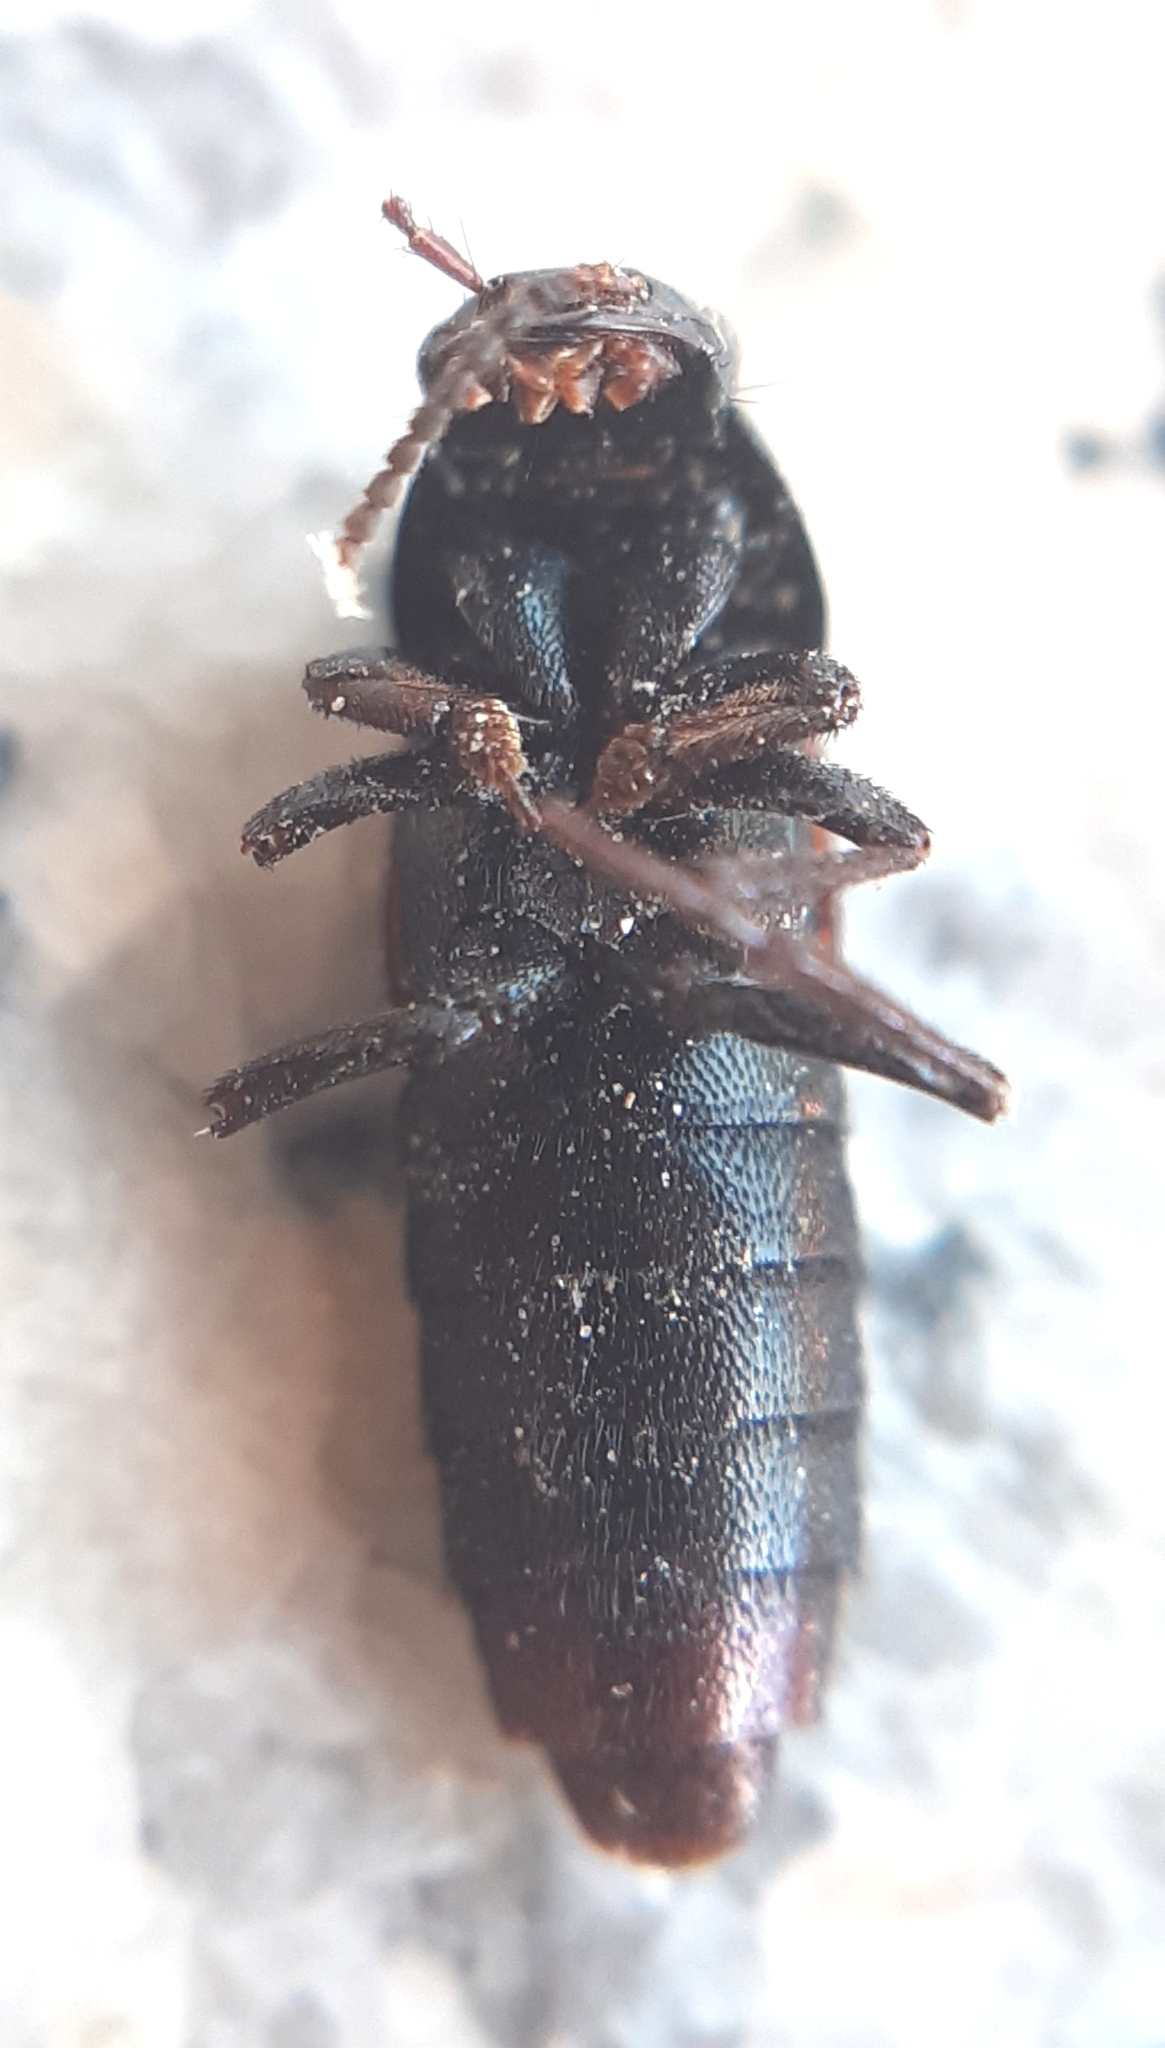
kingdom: Animalia
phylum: Arthropoda
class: Insecta
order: Coleoptera
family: Staphylinidae
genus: Astrapaeus
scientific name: Astrapaeus ulmi
